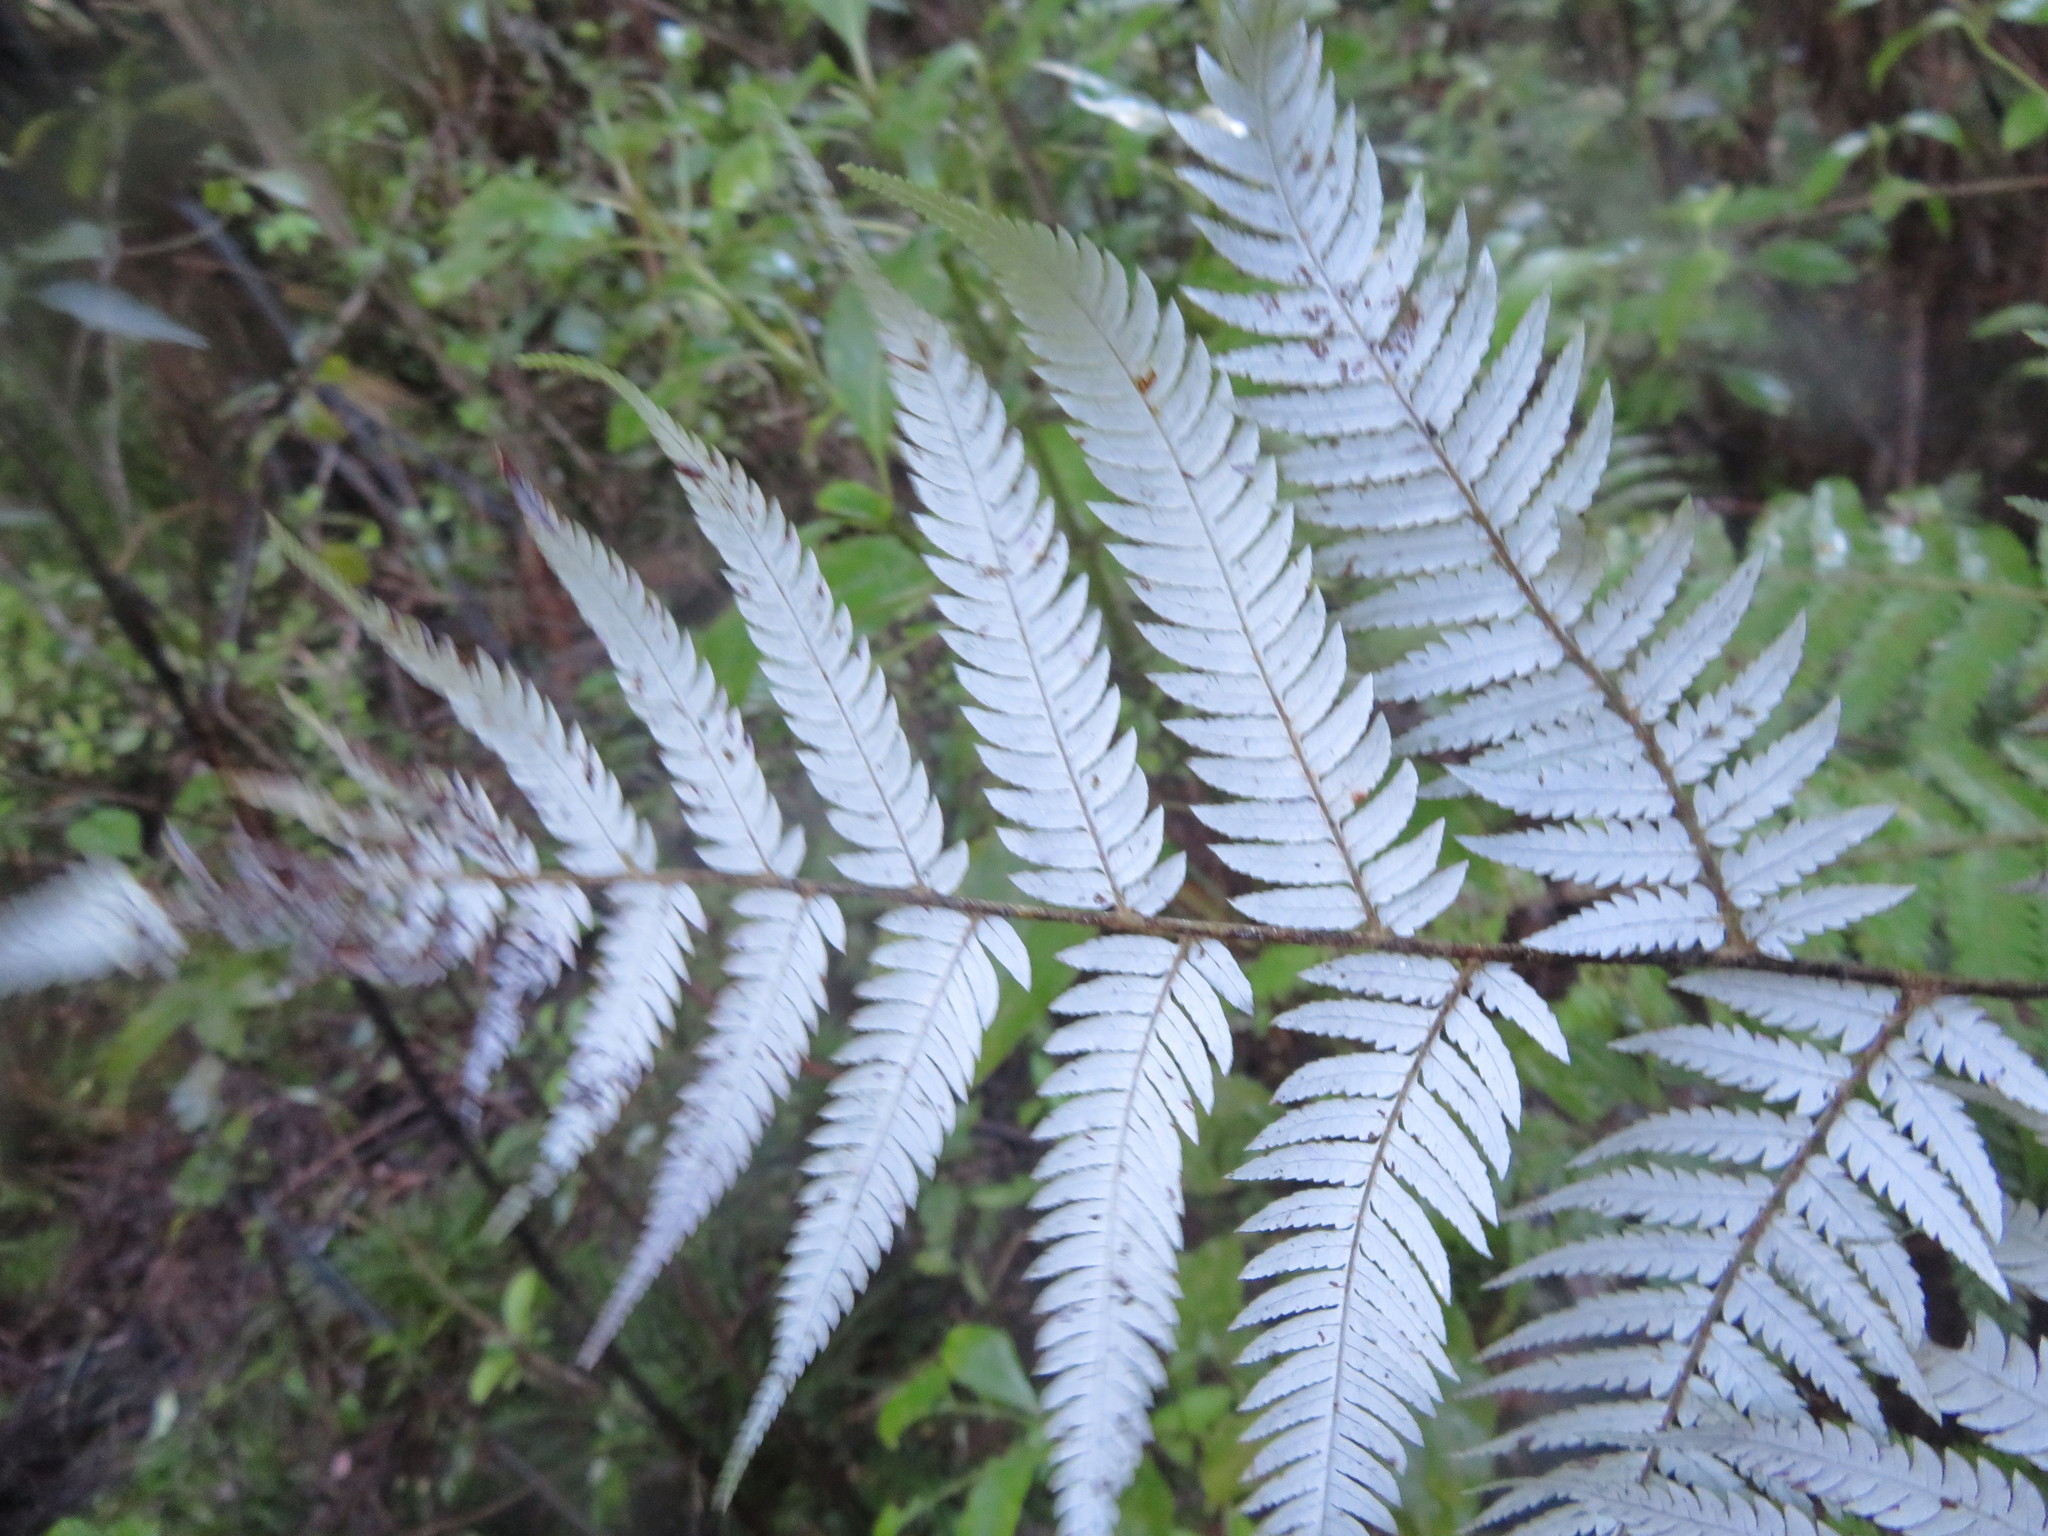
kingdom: Plantae
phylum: Tracheophyta
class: Polypodiopsida
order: Cyatheales
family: Cyatheaceae
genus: Alsophila
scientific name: Alsophila dealbata
